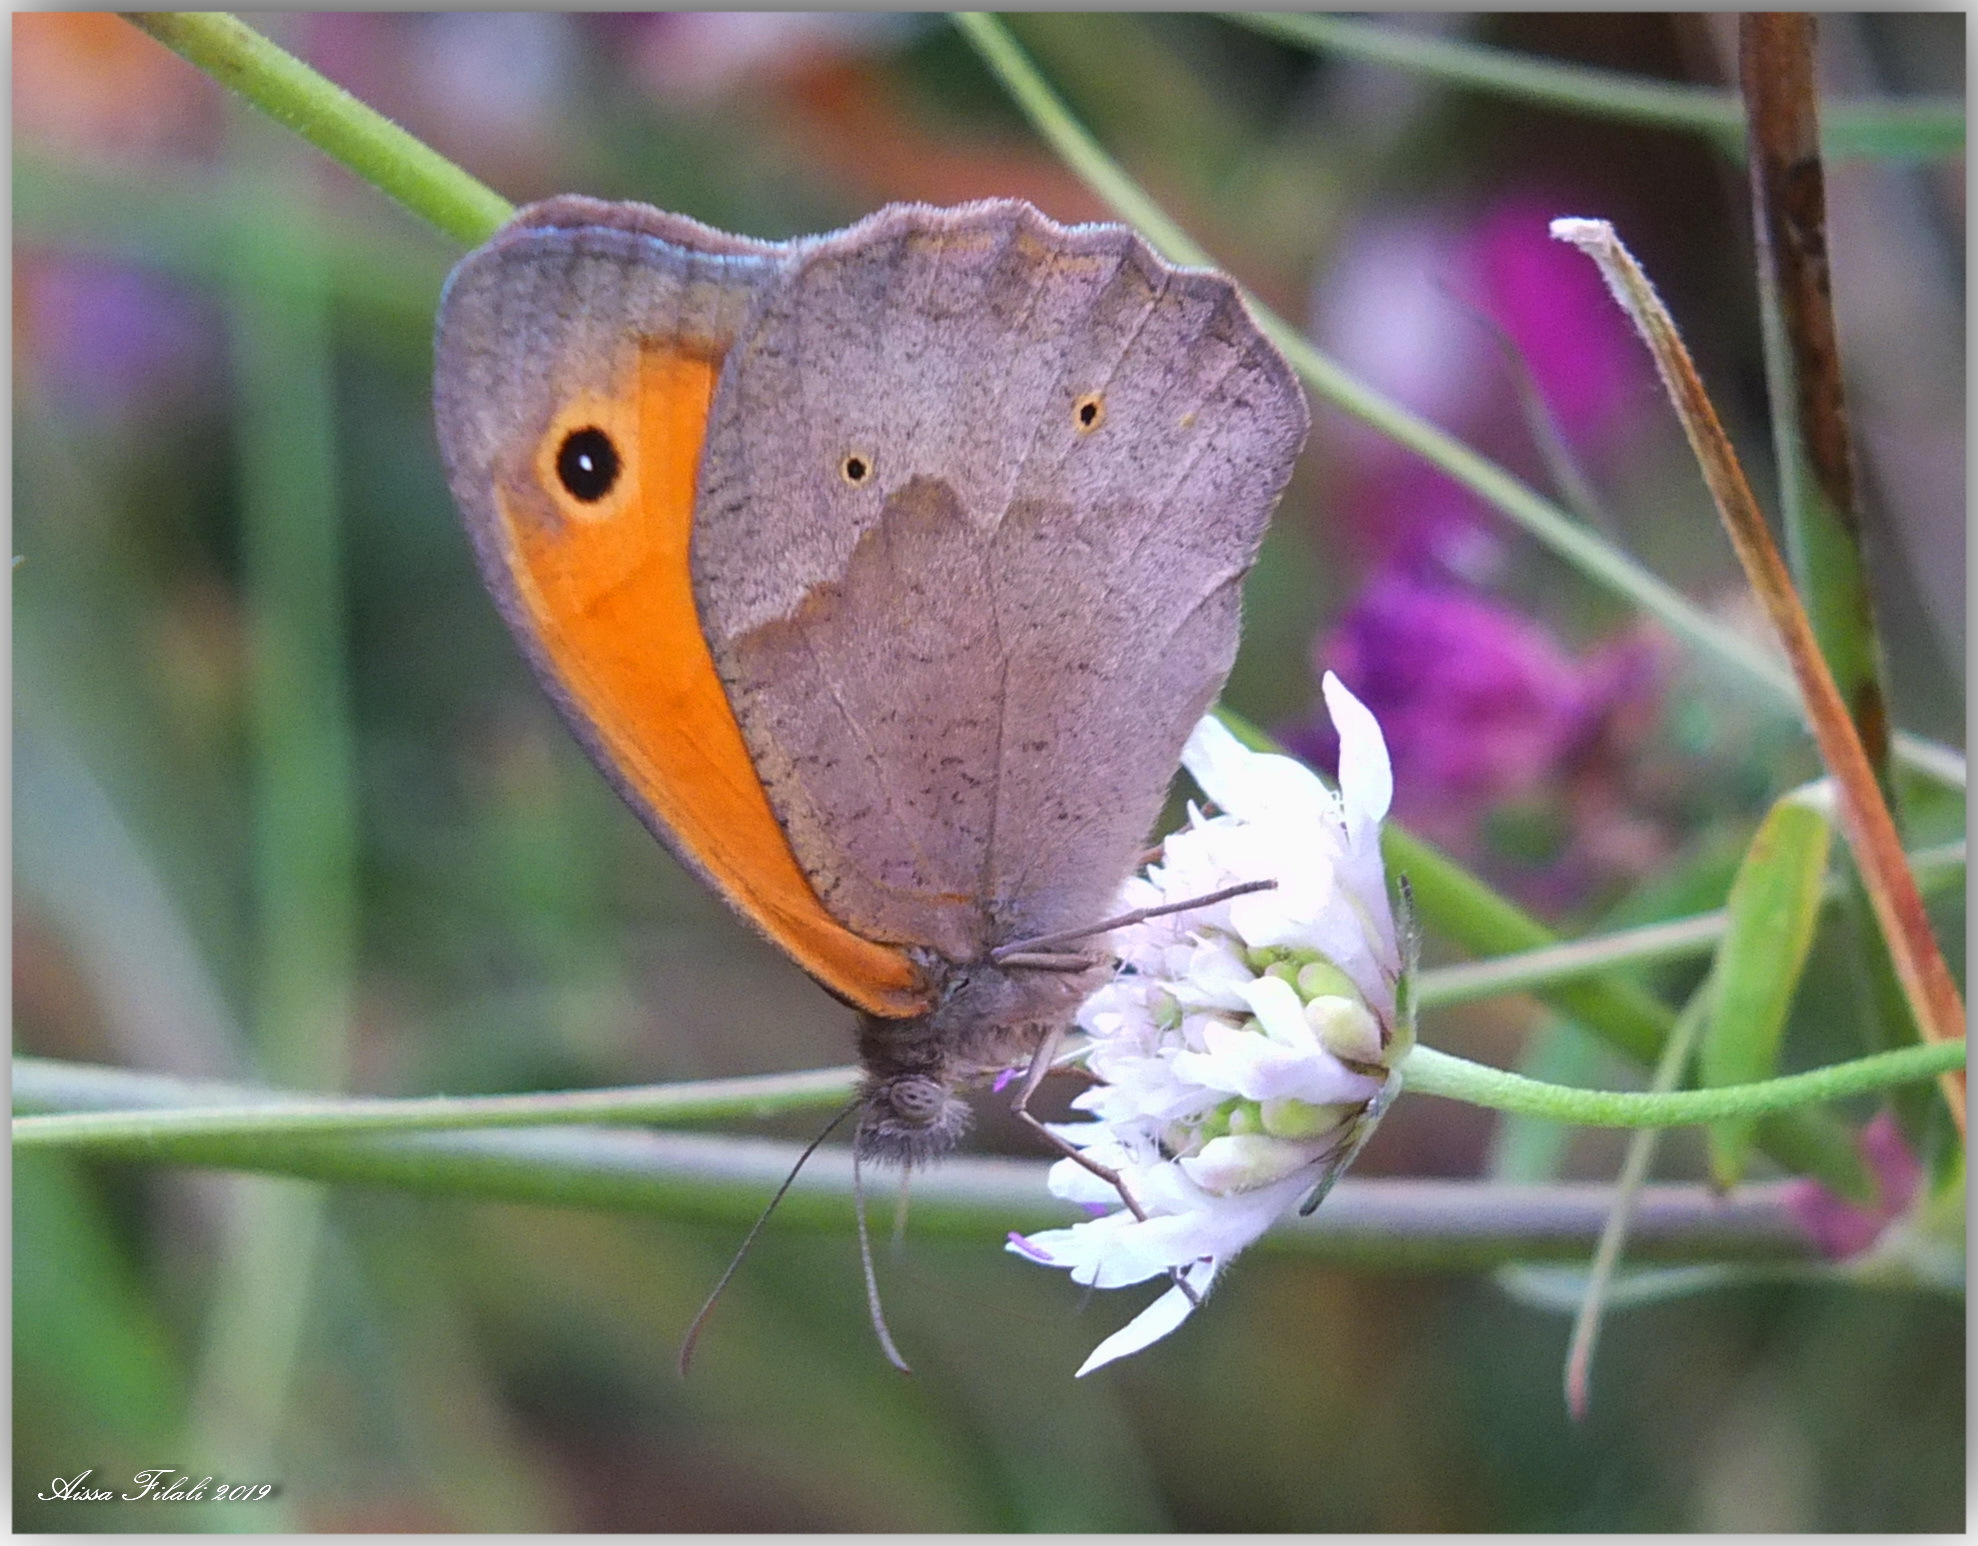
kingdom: Animalia
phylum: Arthropoda
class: Insecta
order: Lepidoptera
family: Nymphalidae
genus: Maniola
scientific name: Maniola jurtina
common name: Meadow brown
